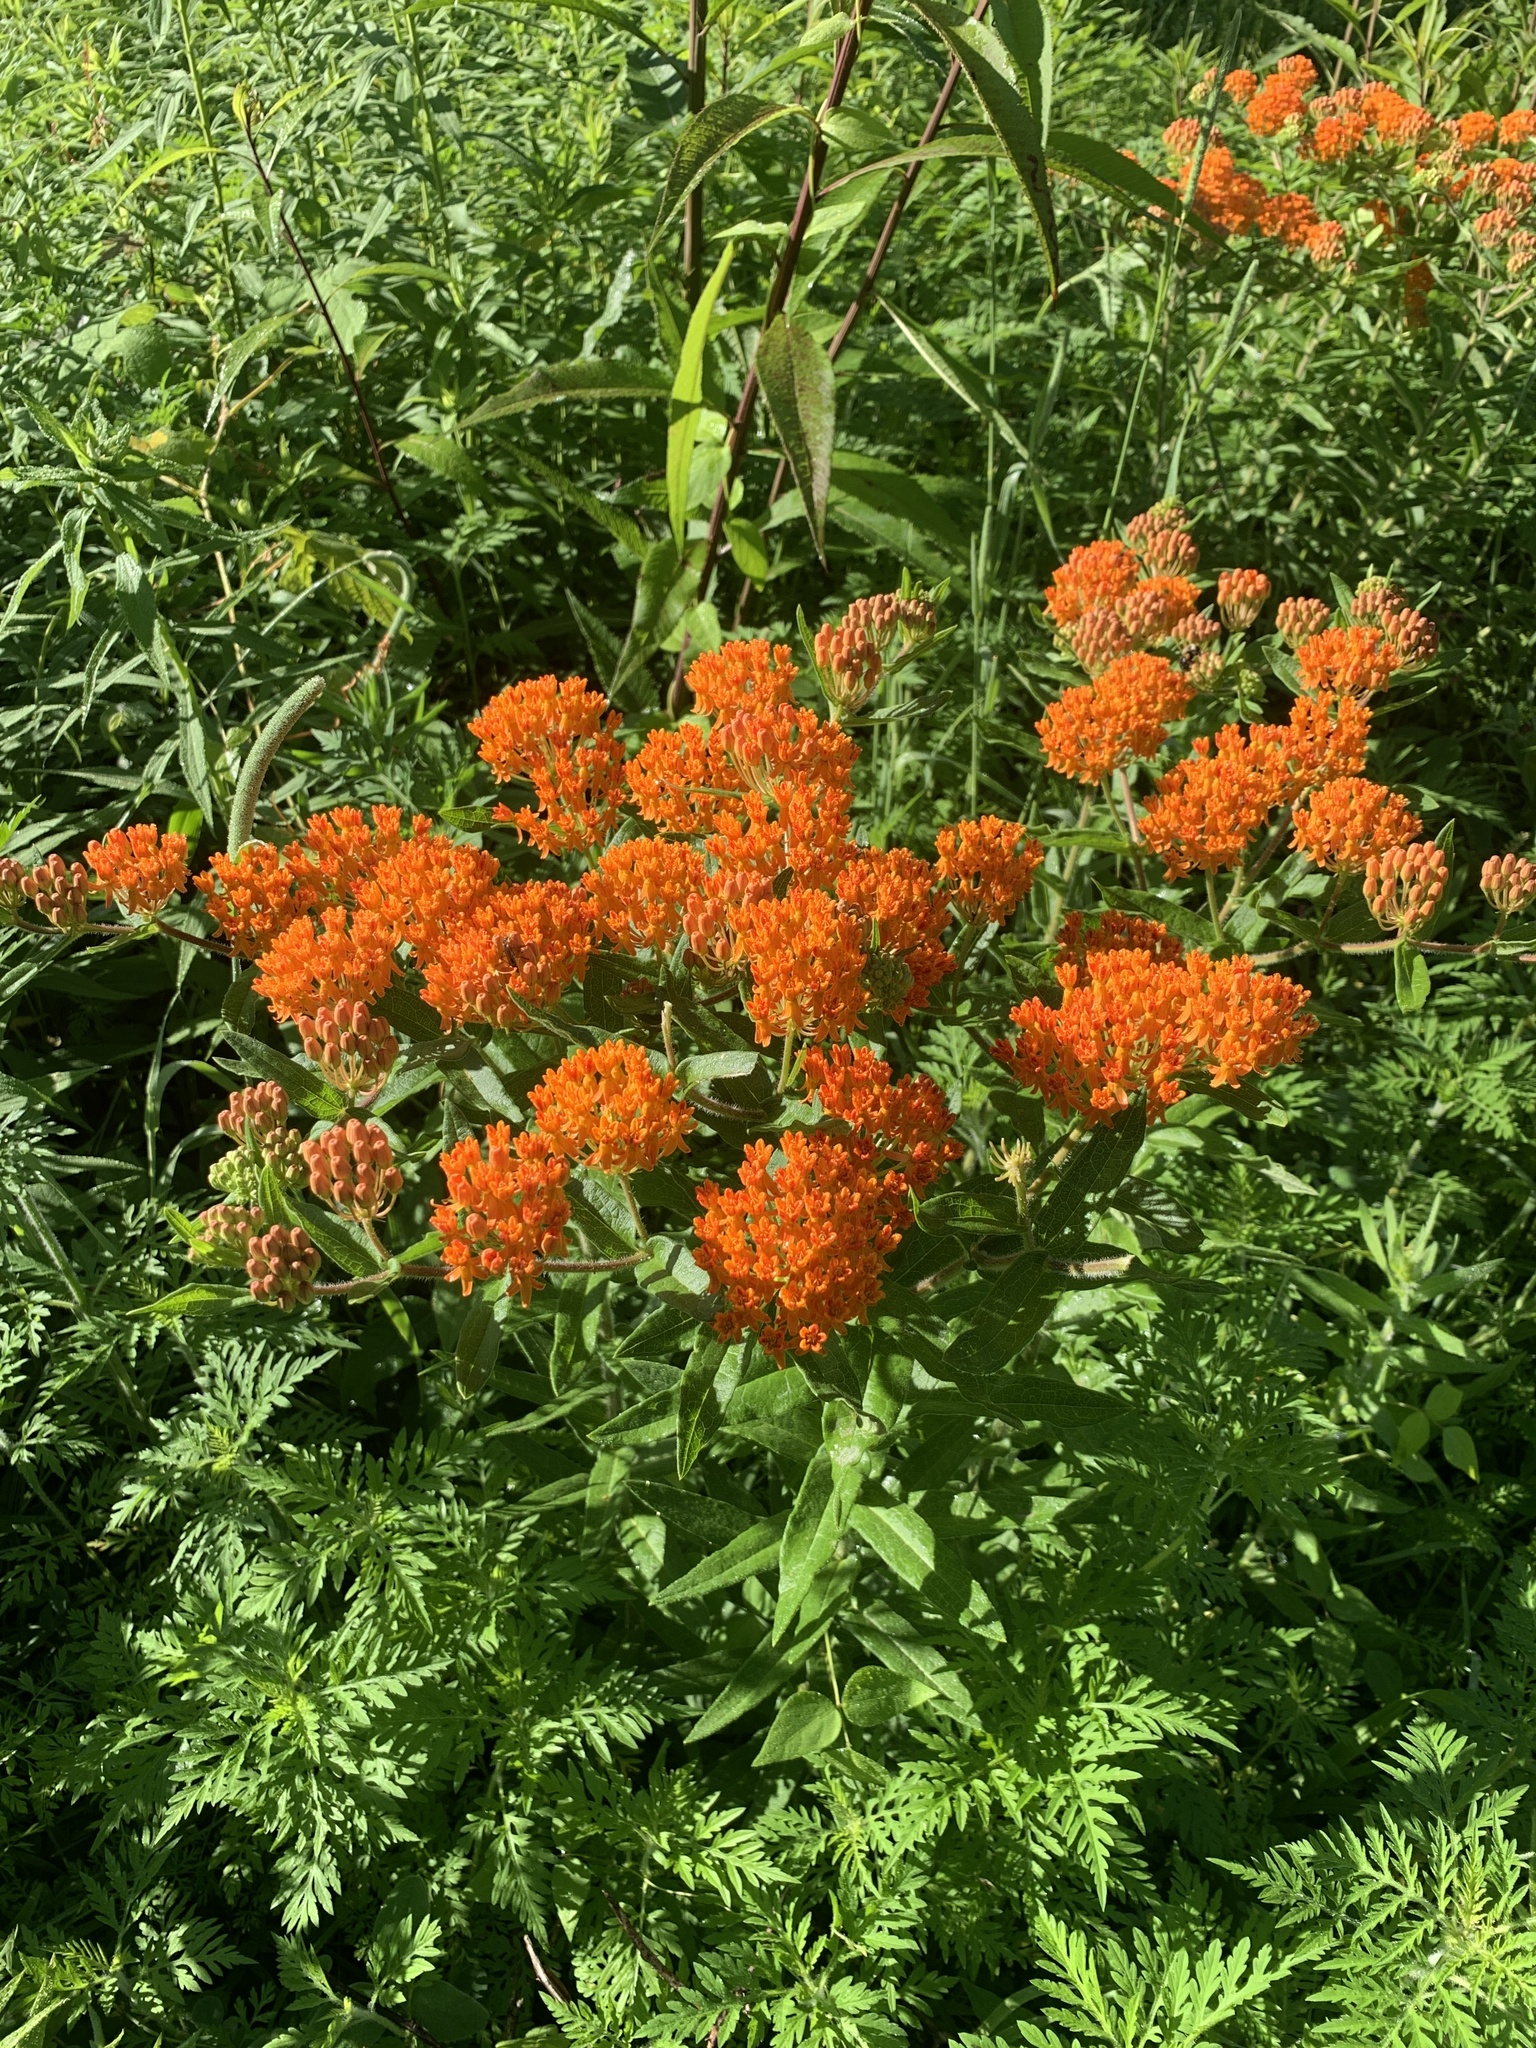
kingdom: Plantae
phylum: Tracheophyta
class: Magnoliopsida
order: Gentianales
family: Apocynaceae
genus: Asclepias
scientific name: Asclepias tuberosa
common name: Butterfly milkweed
